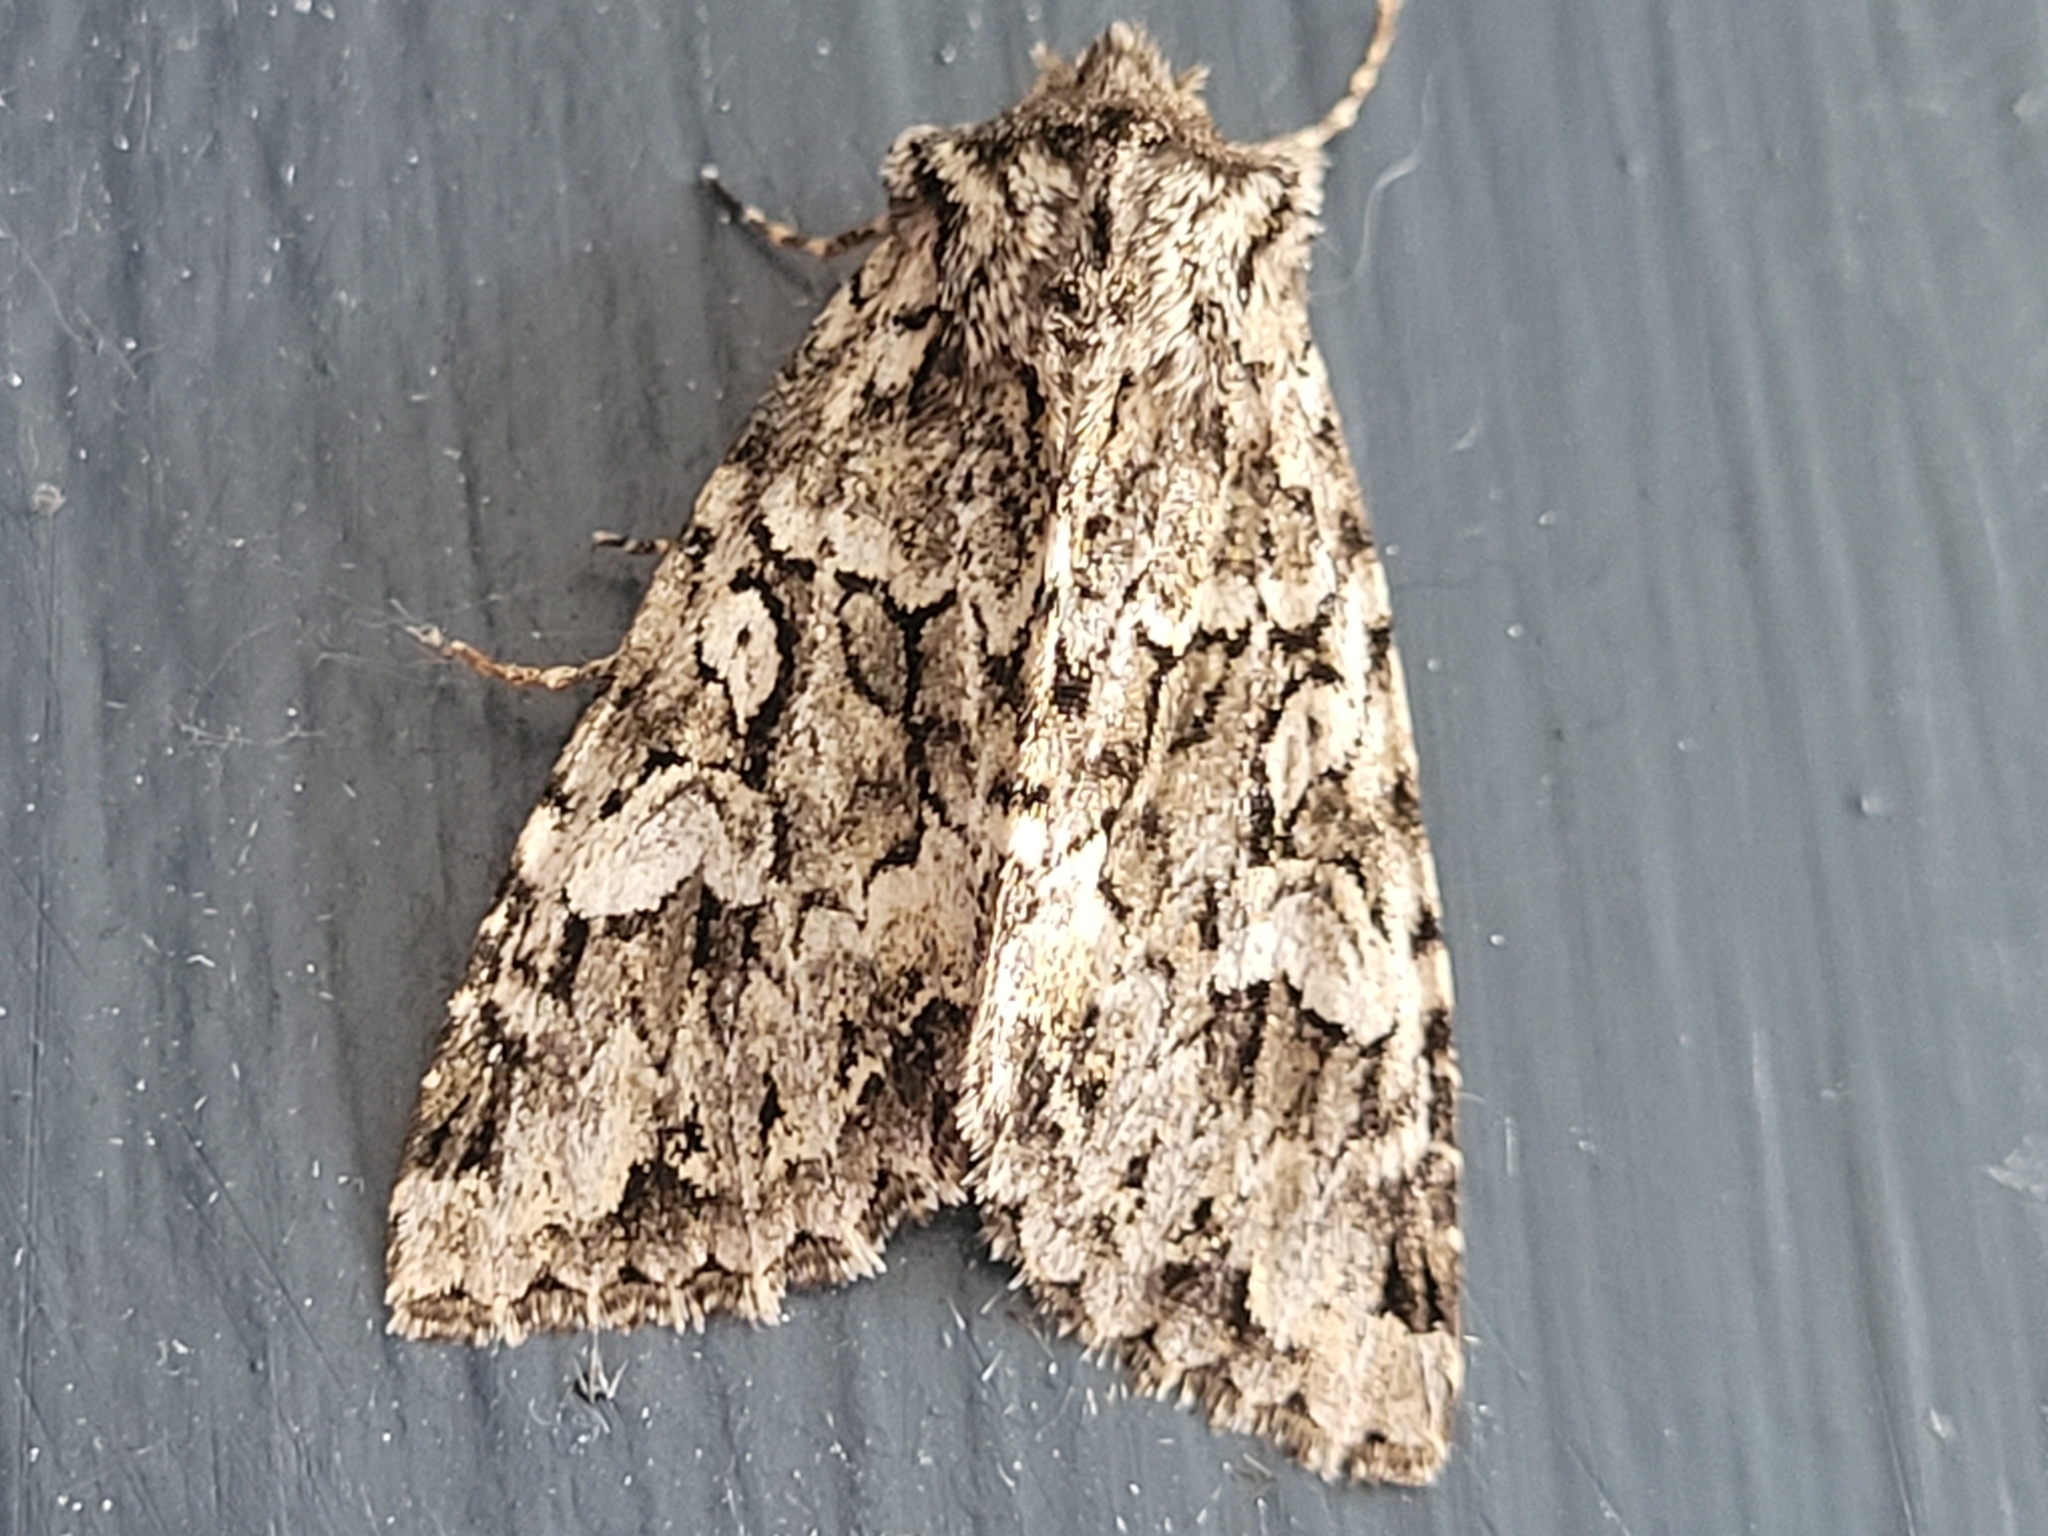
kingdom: Animalia
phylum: Arthropoda
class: Insecta
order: Lepidoptera
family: Noctuidae
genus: Platypolia
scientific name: Platypolia anceps
